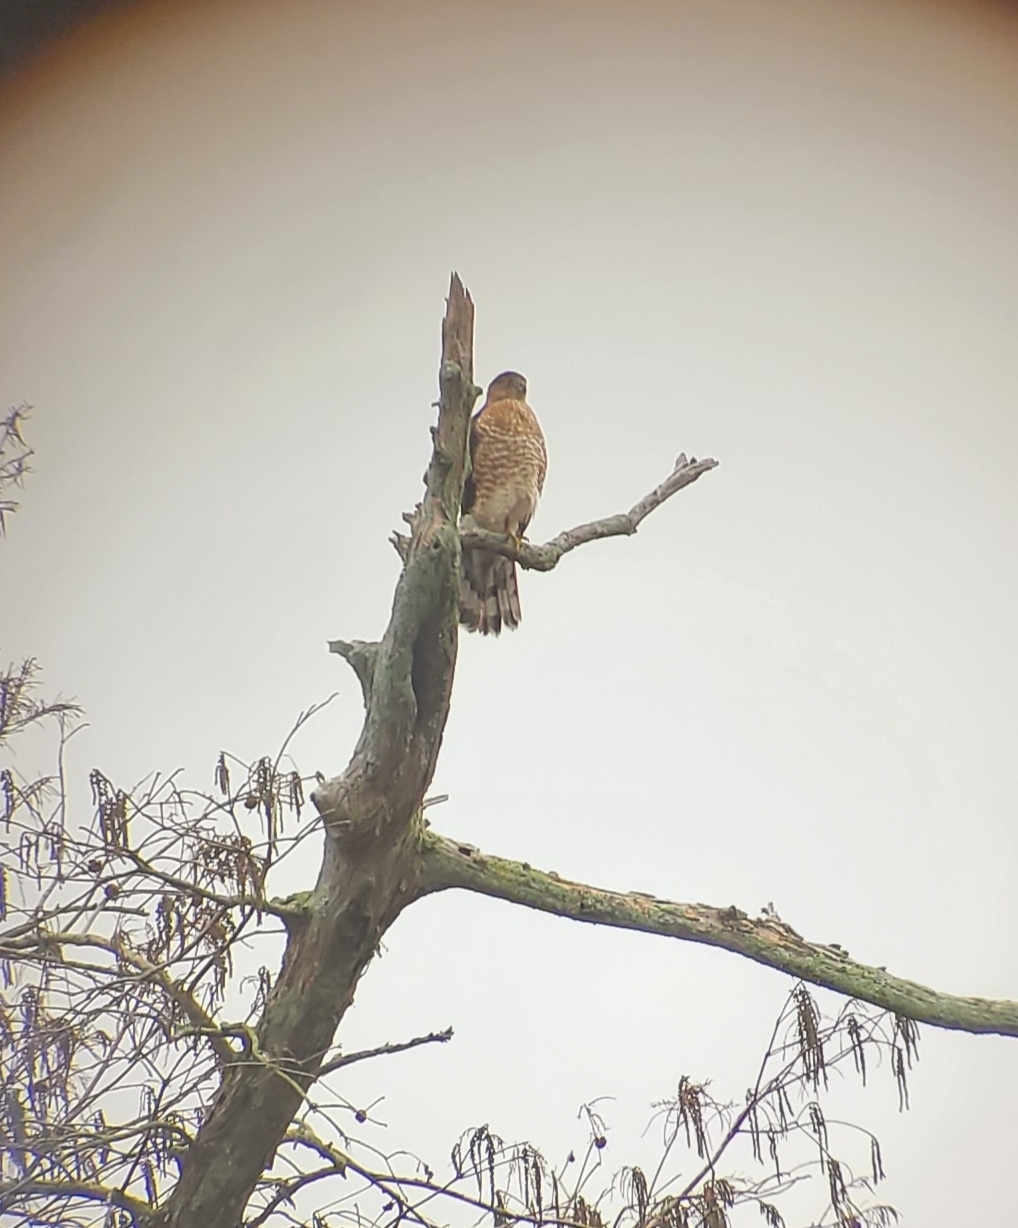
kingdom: Animalia
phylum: Chordata
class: Aves
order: Accipitriformes
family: Accipitridae
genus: Accipiter
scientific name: Accipiter cooperii
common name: Cooper's hawk
